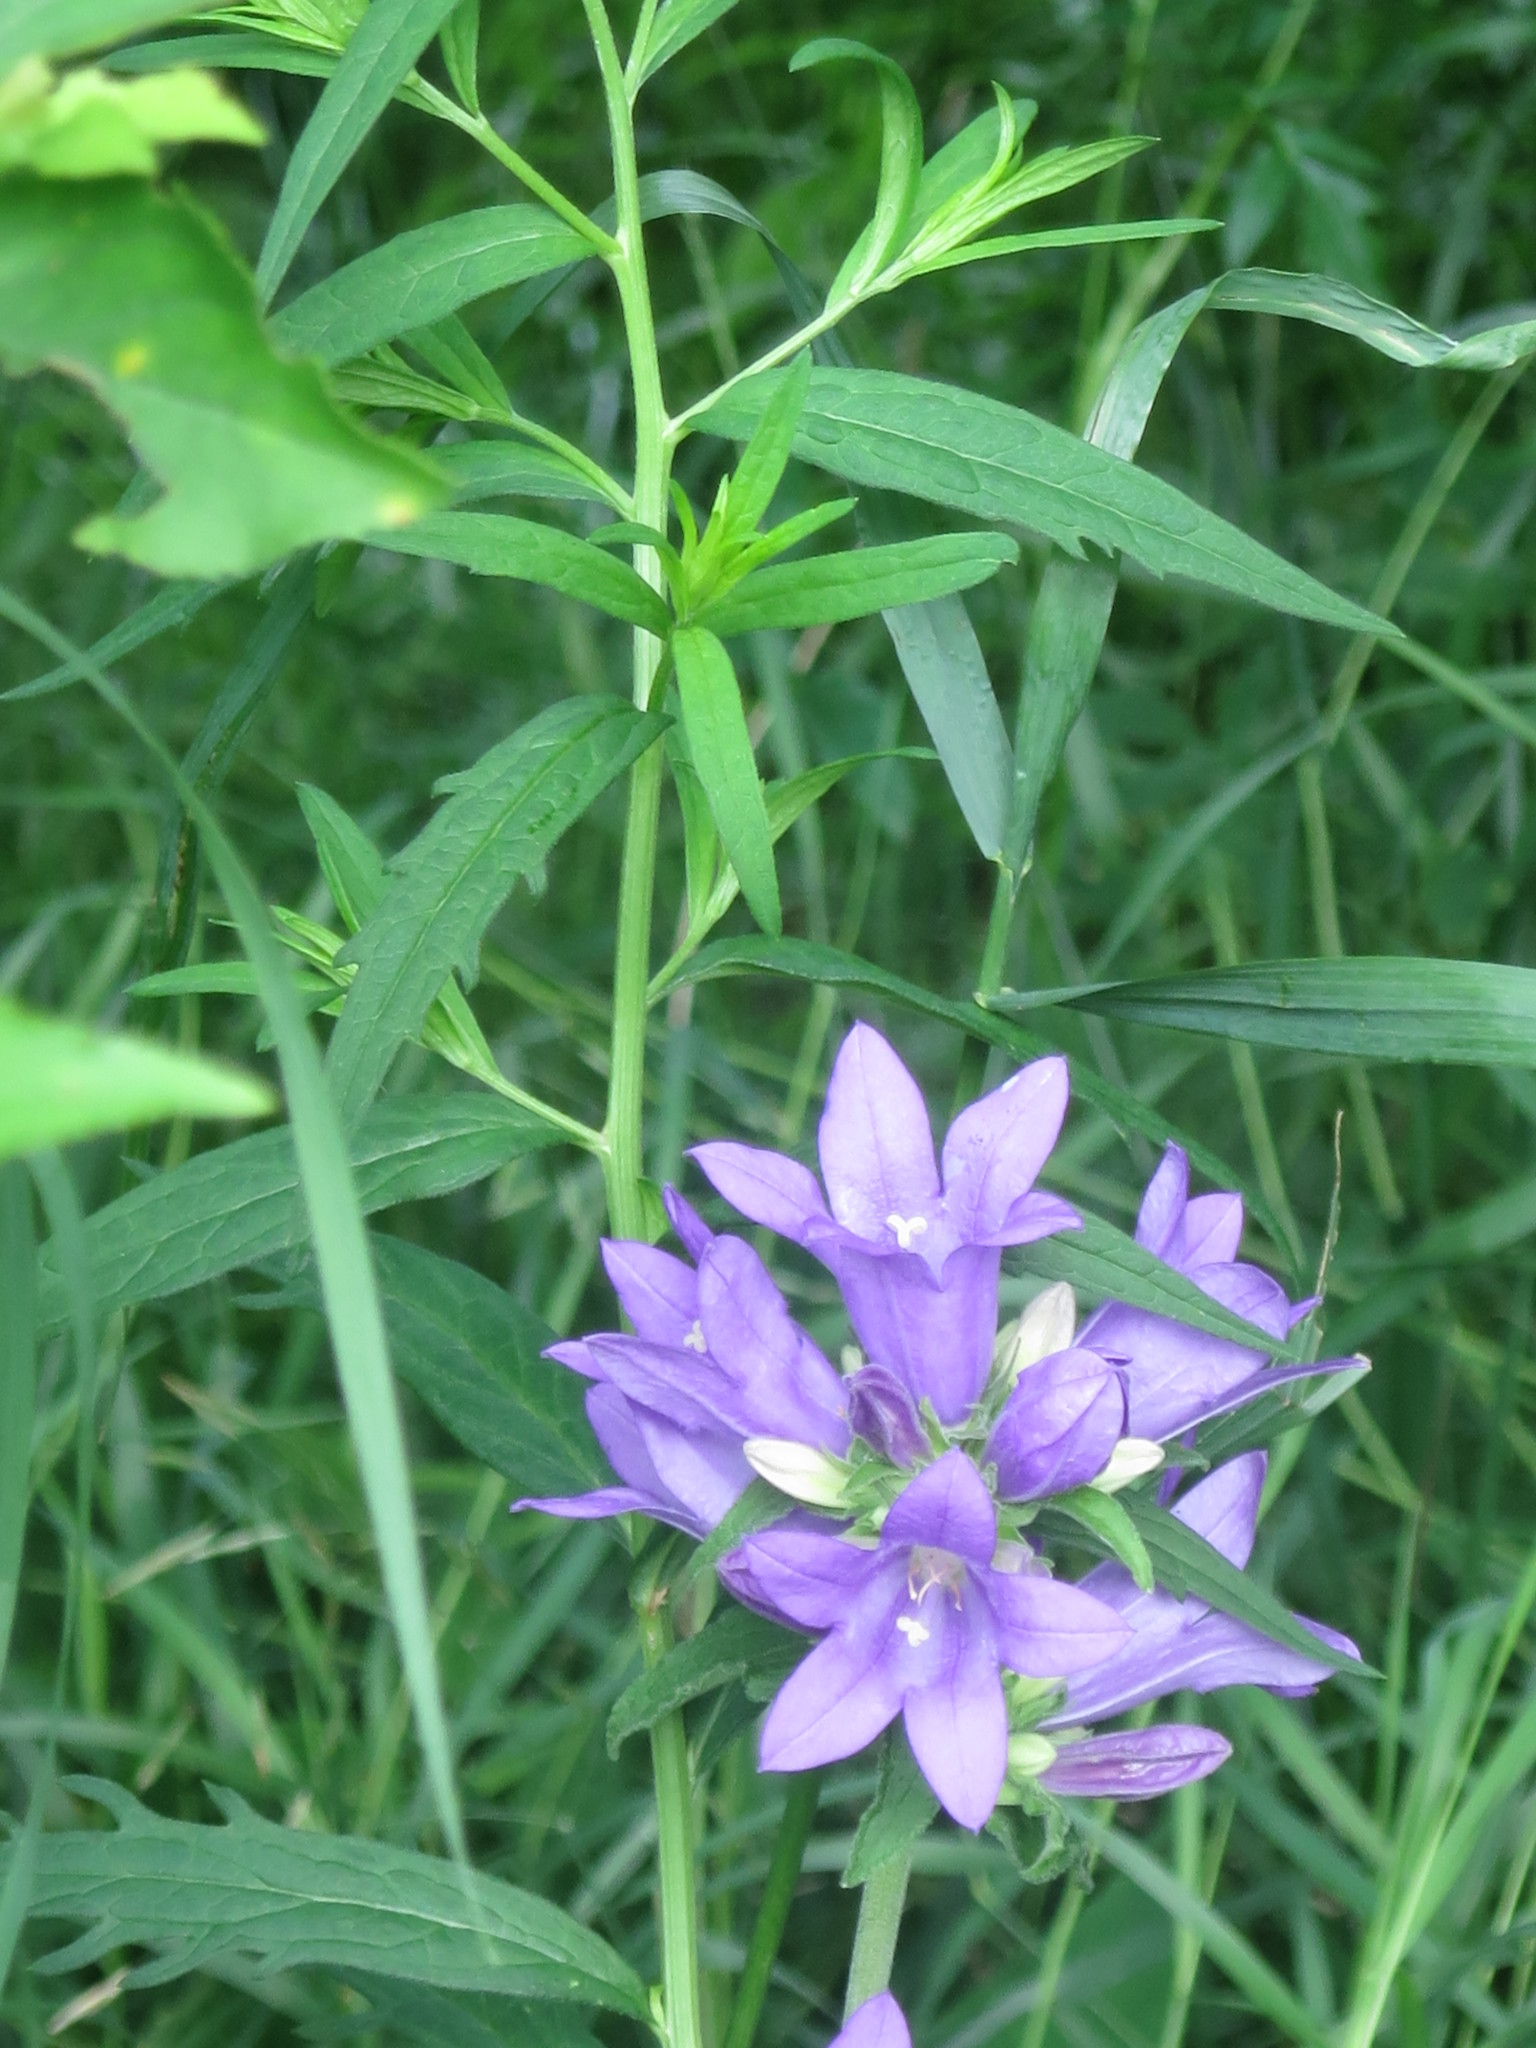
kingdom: Plantae
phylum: Tracheophyta
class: Magnoliopsida
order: Asterales
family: Campanulaceae
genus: Campanula
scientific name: Campanula glomerata
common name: Clustered bellflower
